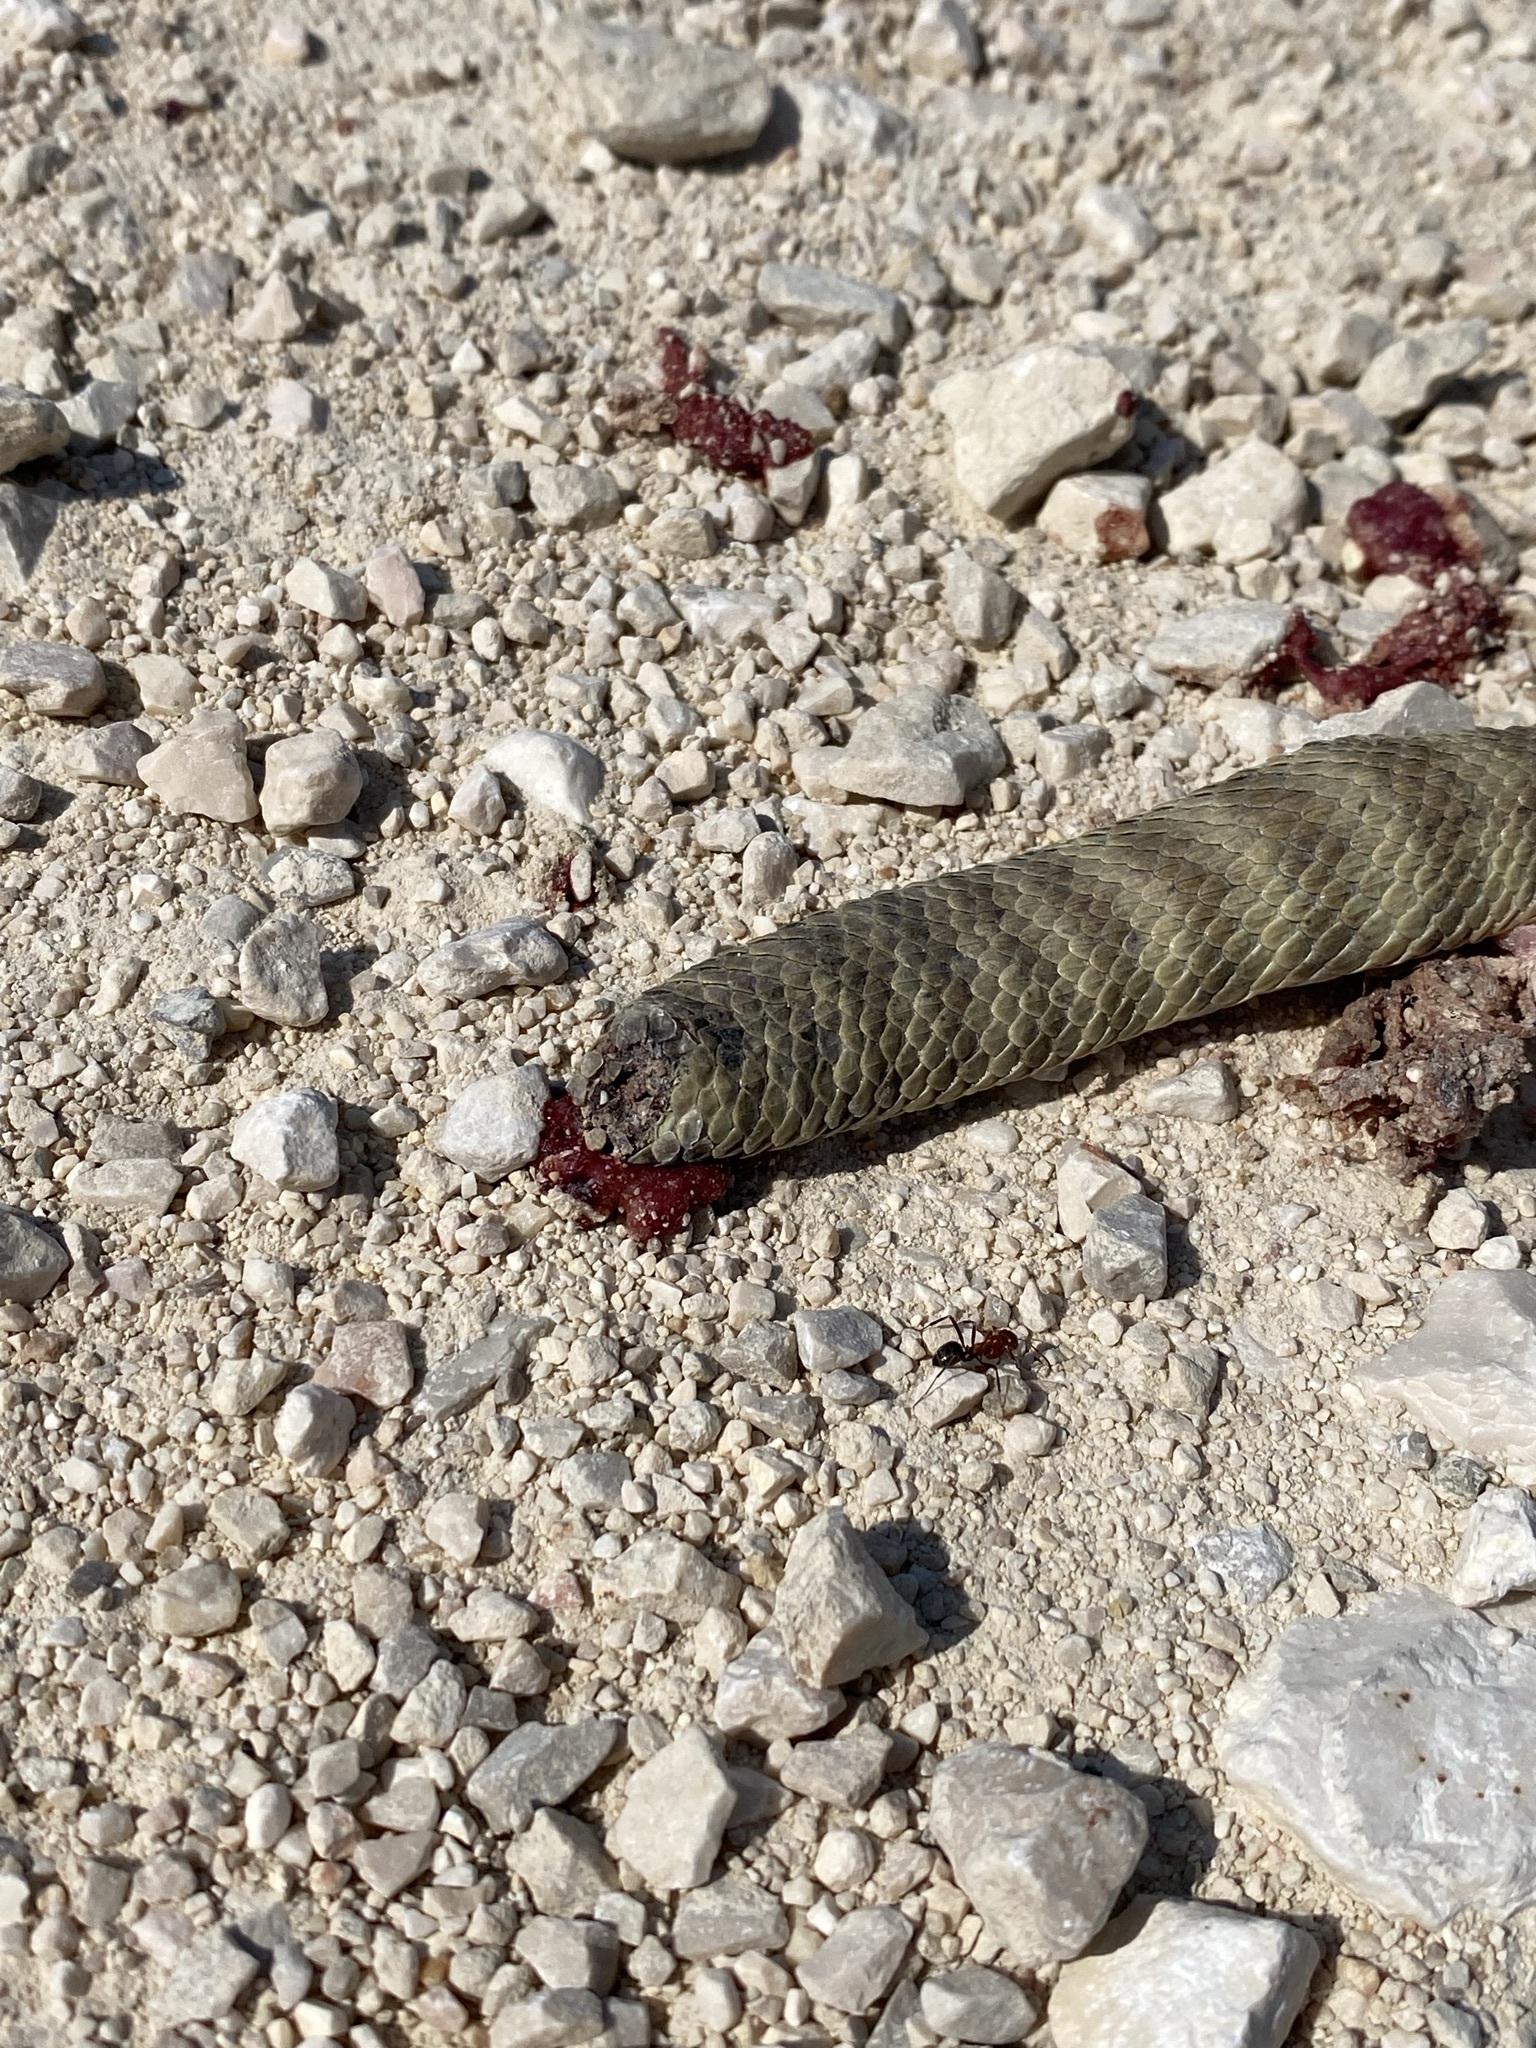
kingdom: Animalia
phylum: Chordata
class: Squamata
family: Viperidae
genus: Crotalus
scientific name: Crotalus viridis
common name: Prairie rattlesnake
